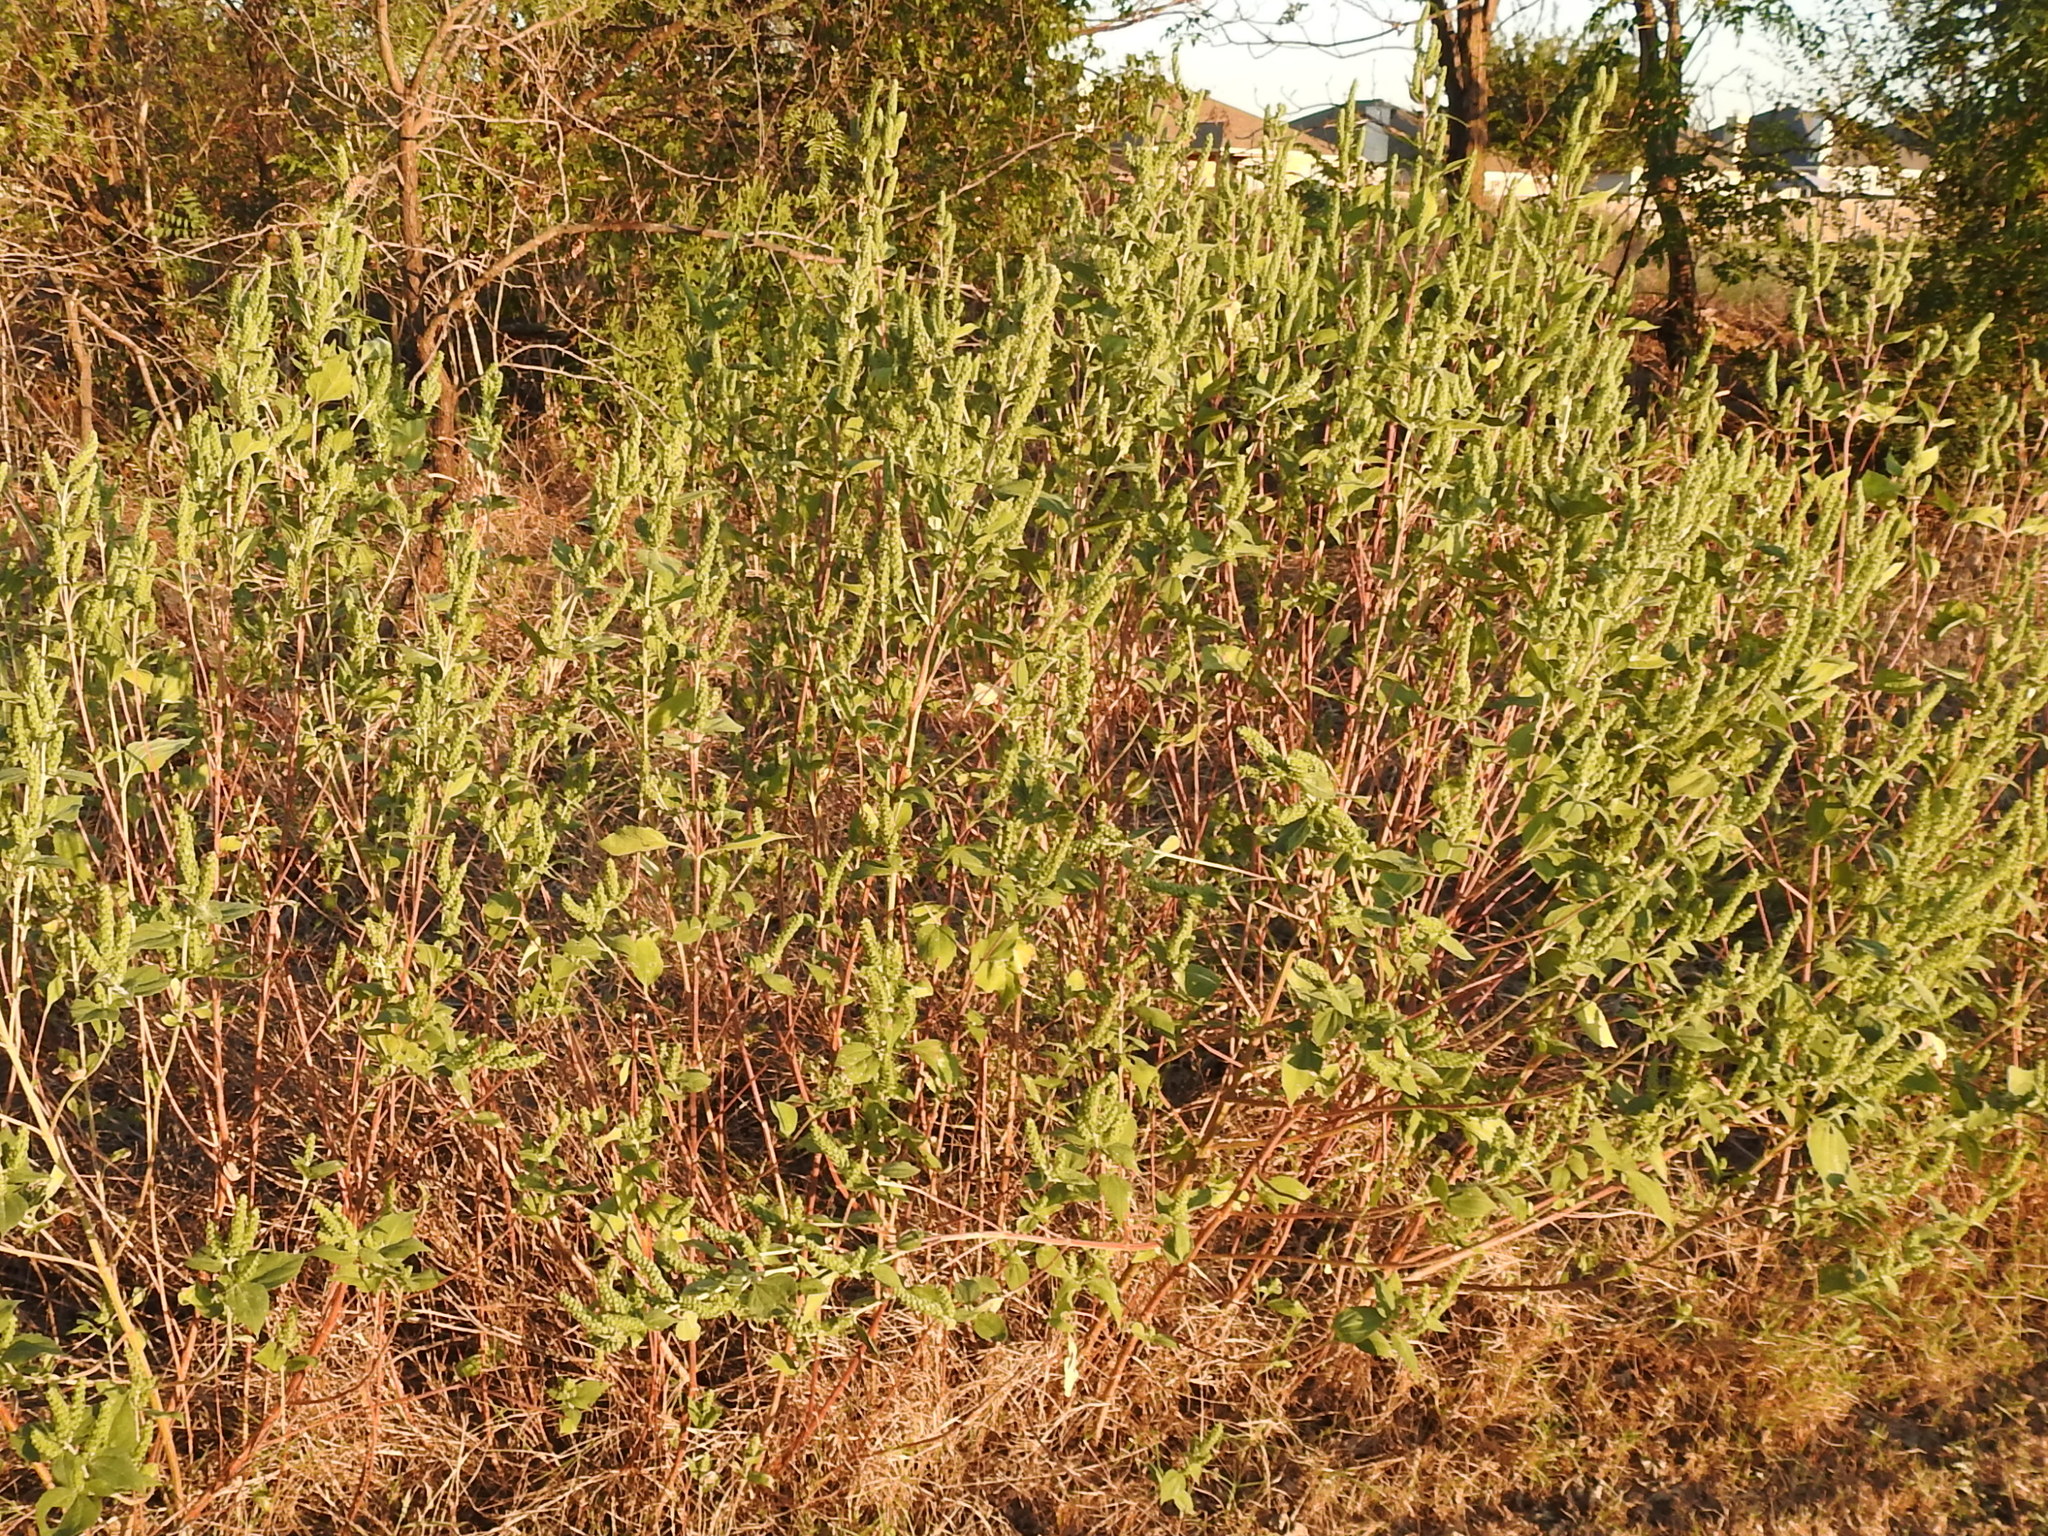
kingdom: Plantae
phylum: Tracheophyta
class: Magnoliopsida
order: Asterales
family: Asteraceae
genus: Iva
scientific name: Iva annua
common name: Marsh-elder
